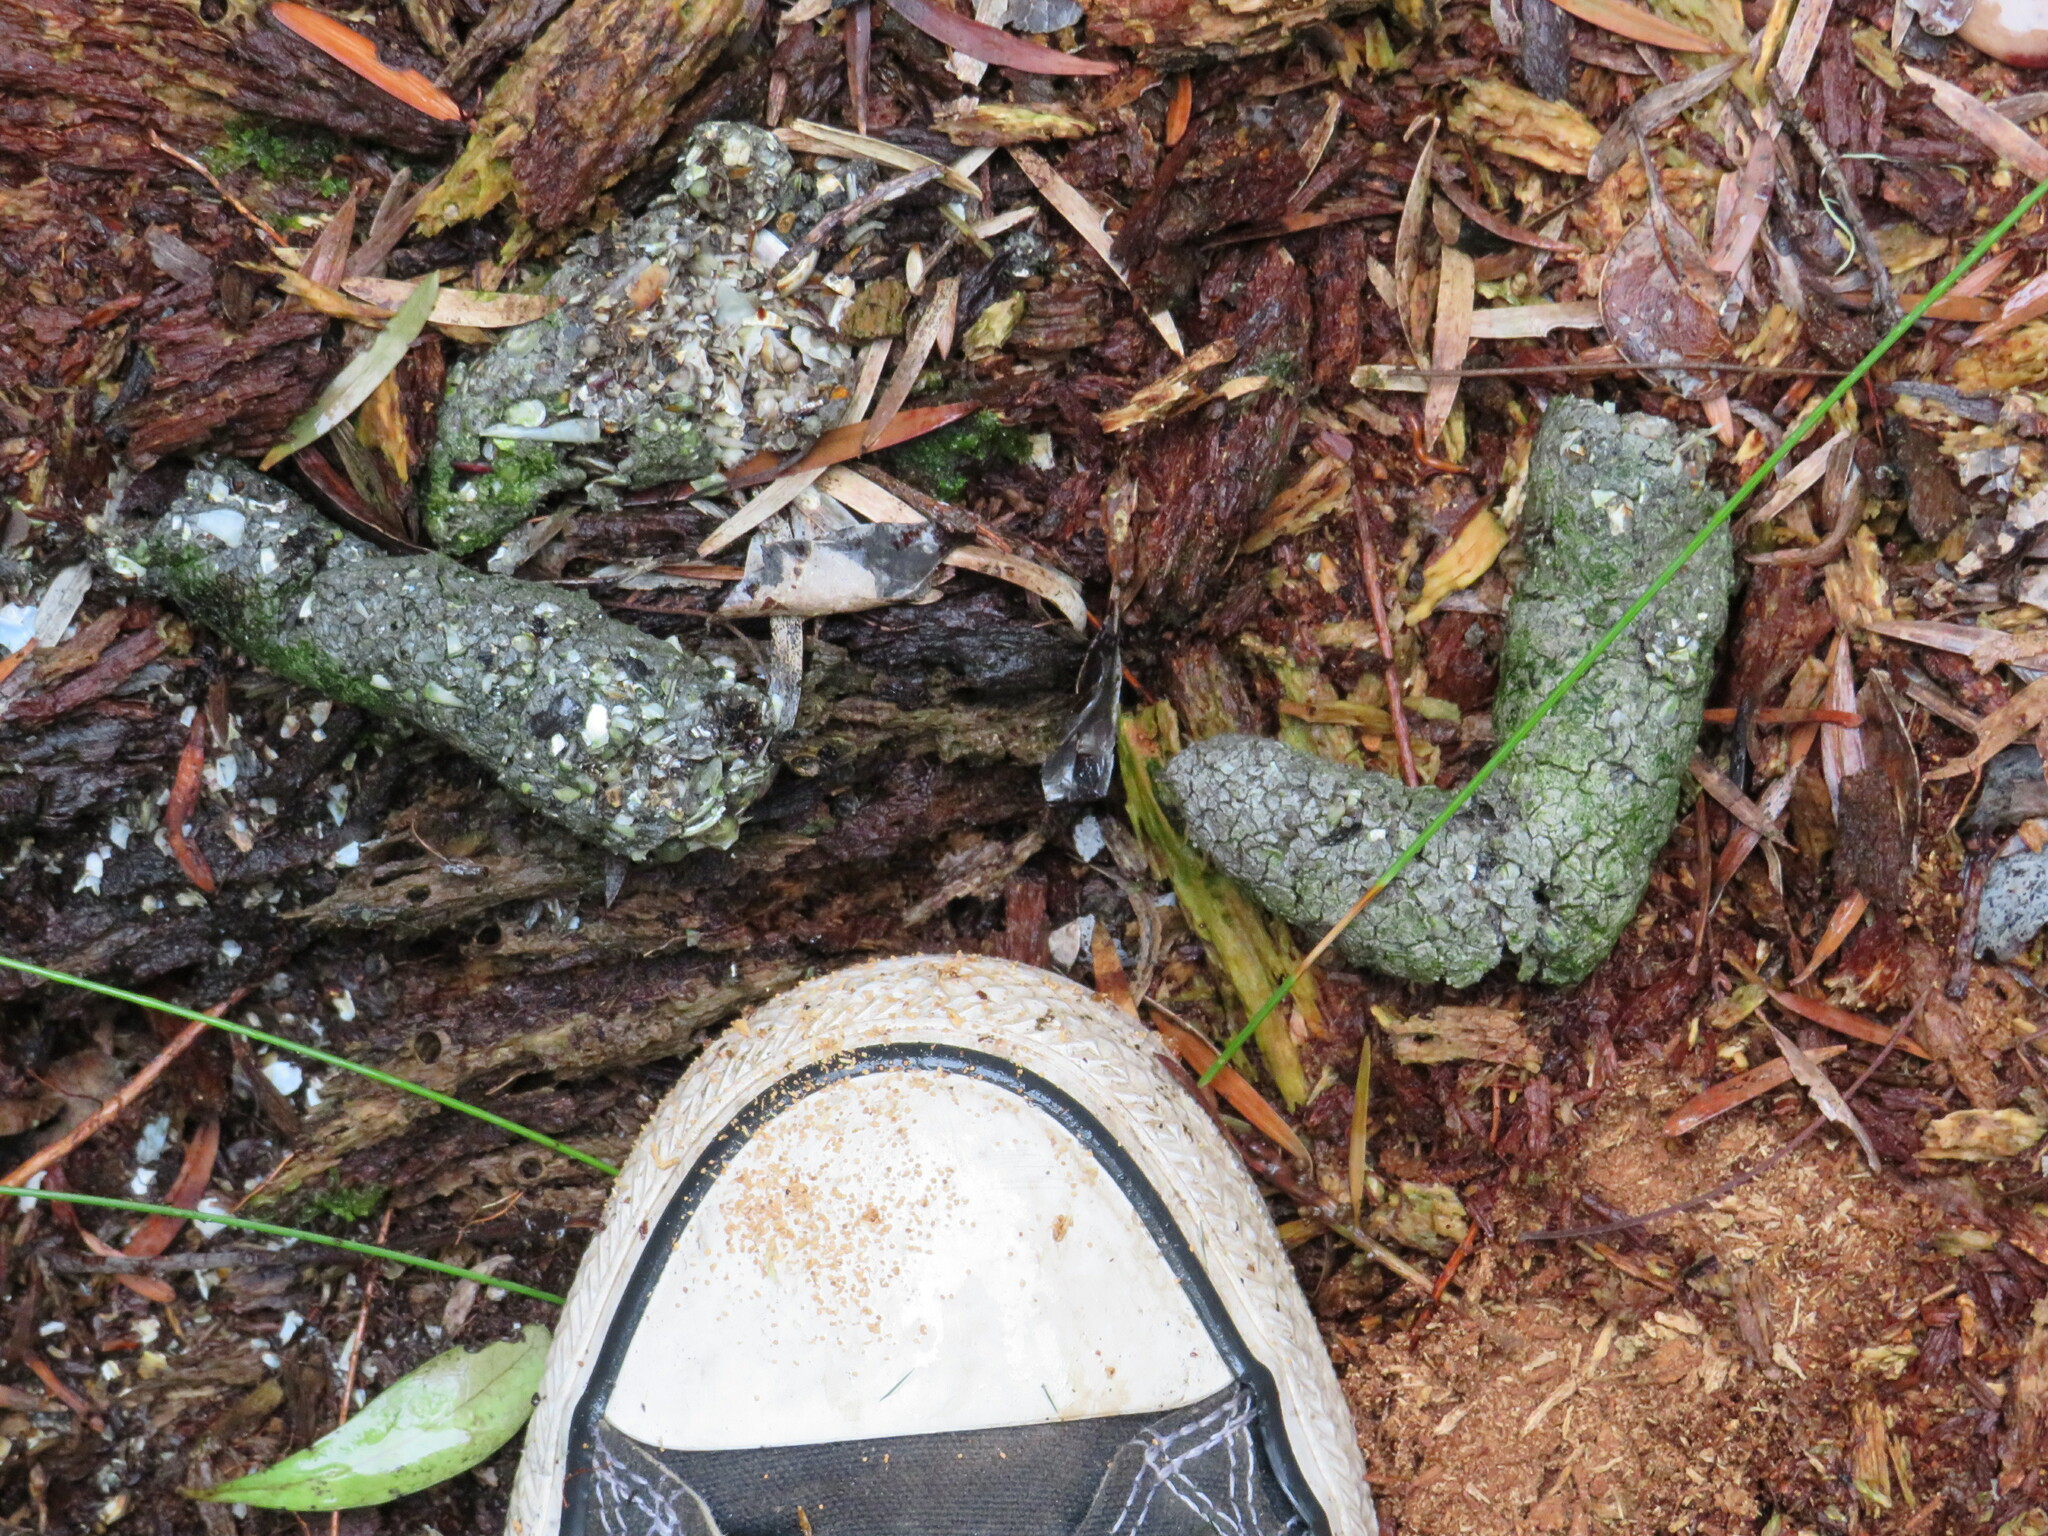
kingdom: Animalia
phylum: Chordata
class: Mammalia
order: Carnivora
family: Herpestidae
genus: Atilax
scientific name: Atilax paludinosus
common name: Marsh mongoose
